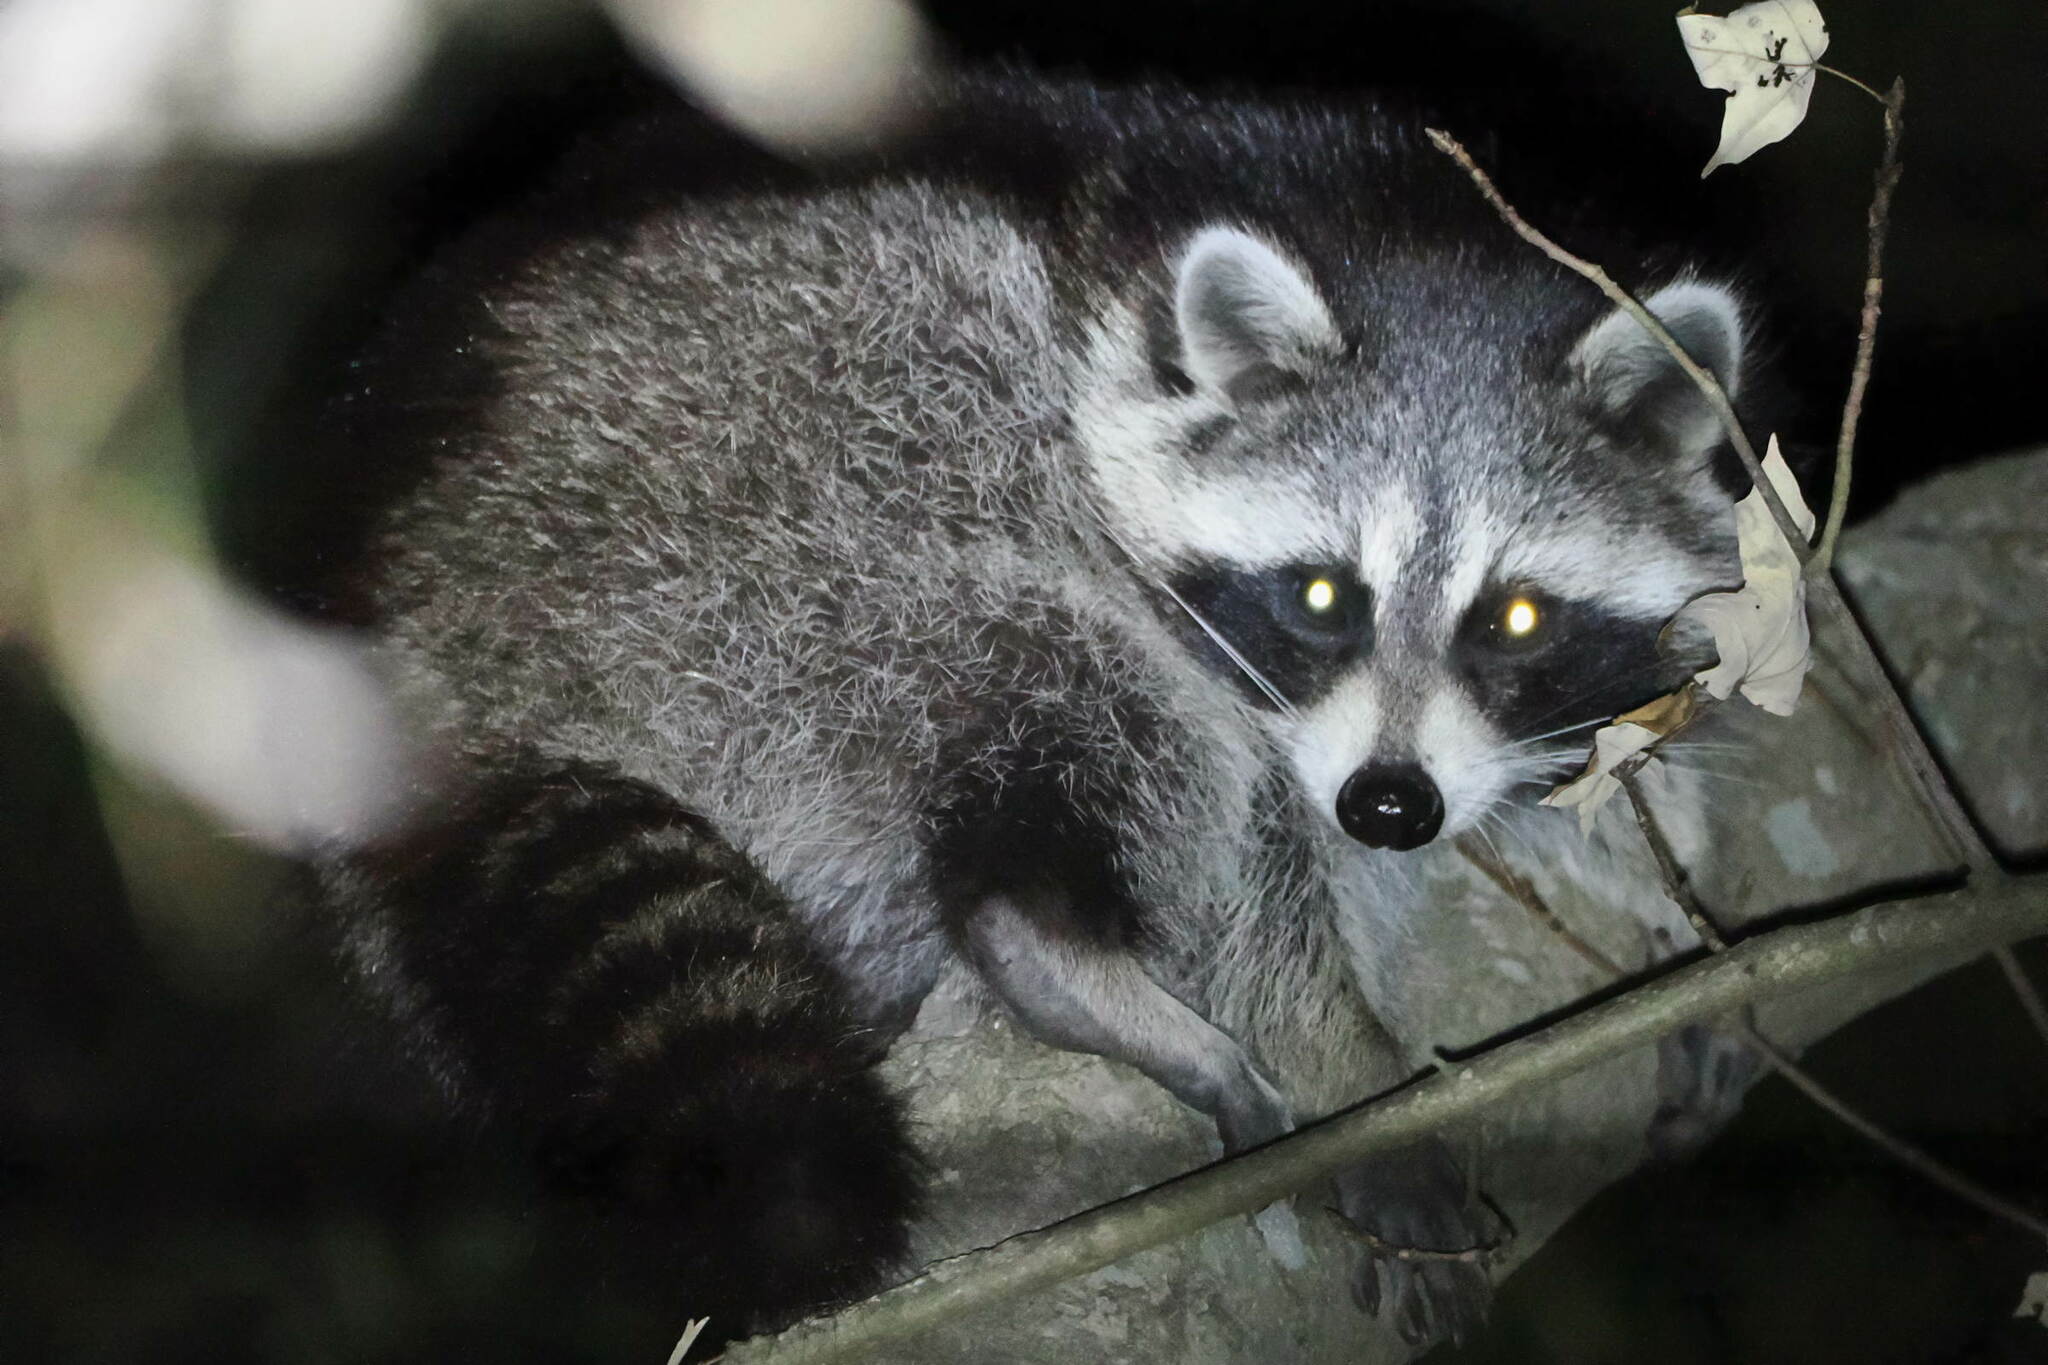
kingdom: Animalia
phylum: Chordata
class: Mammalia
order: Carnivora
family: Procyonidae
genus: Procyon
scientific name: Procyon lotor
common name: Raccoon
